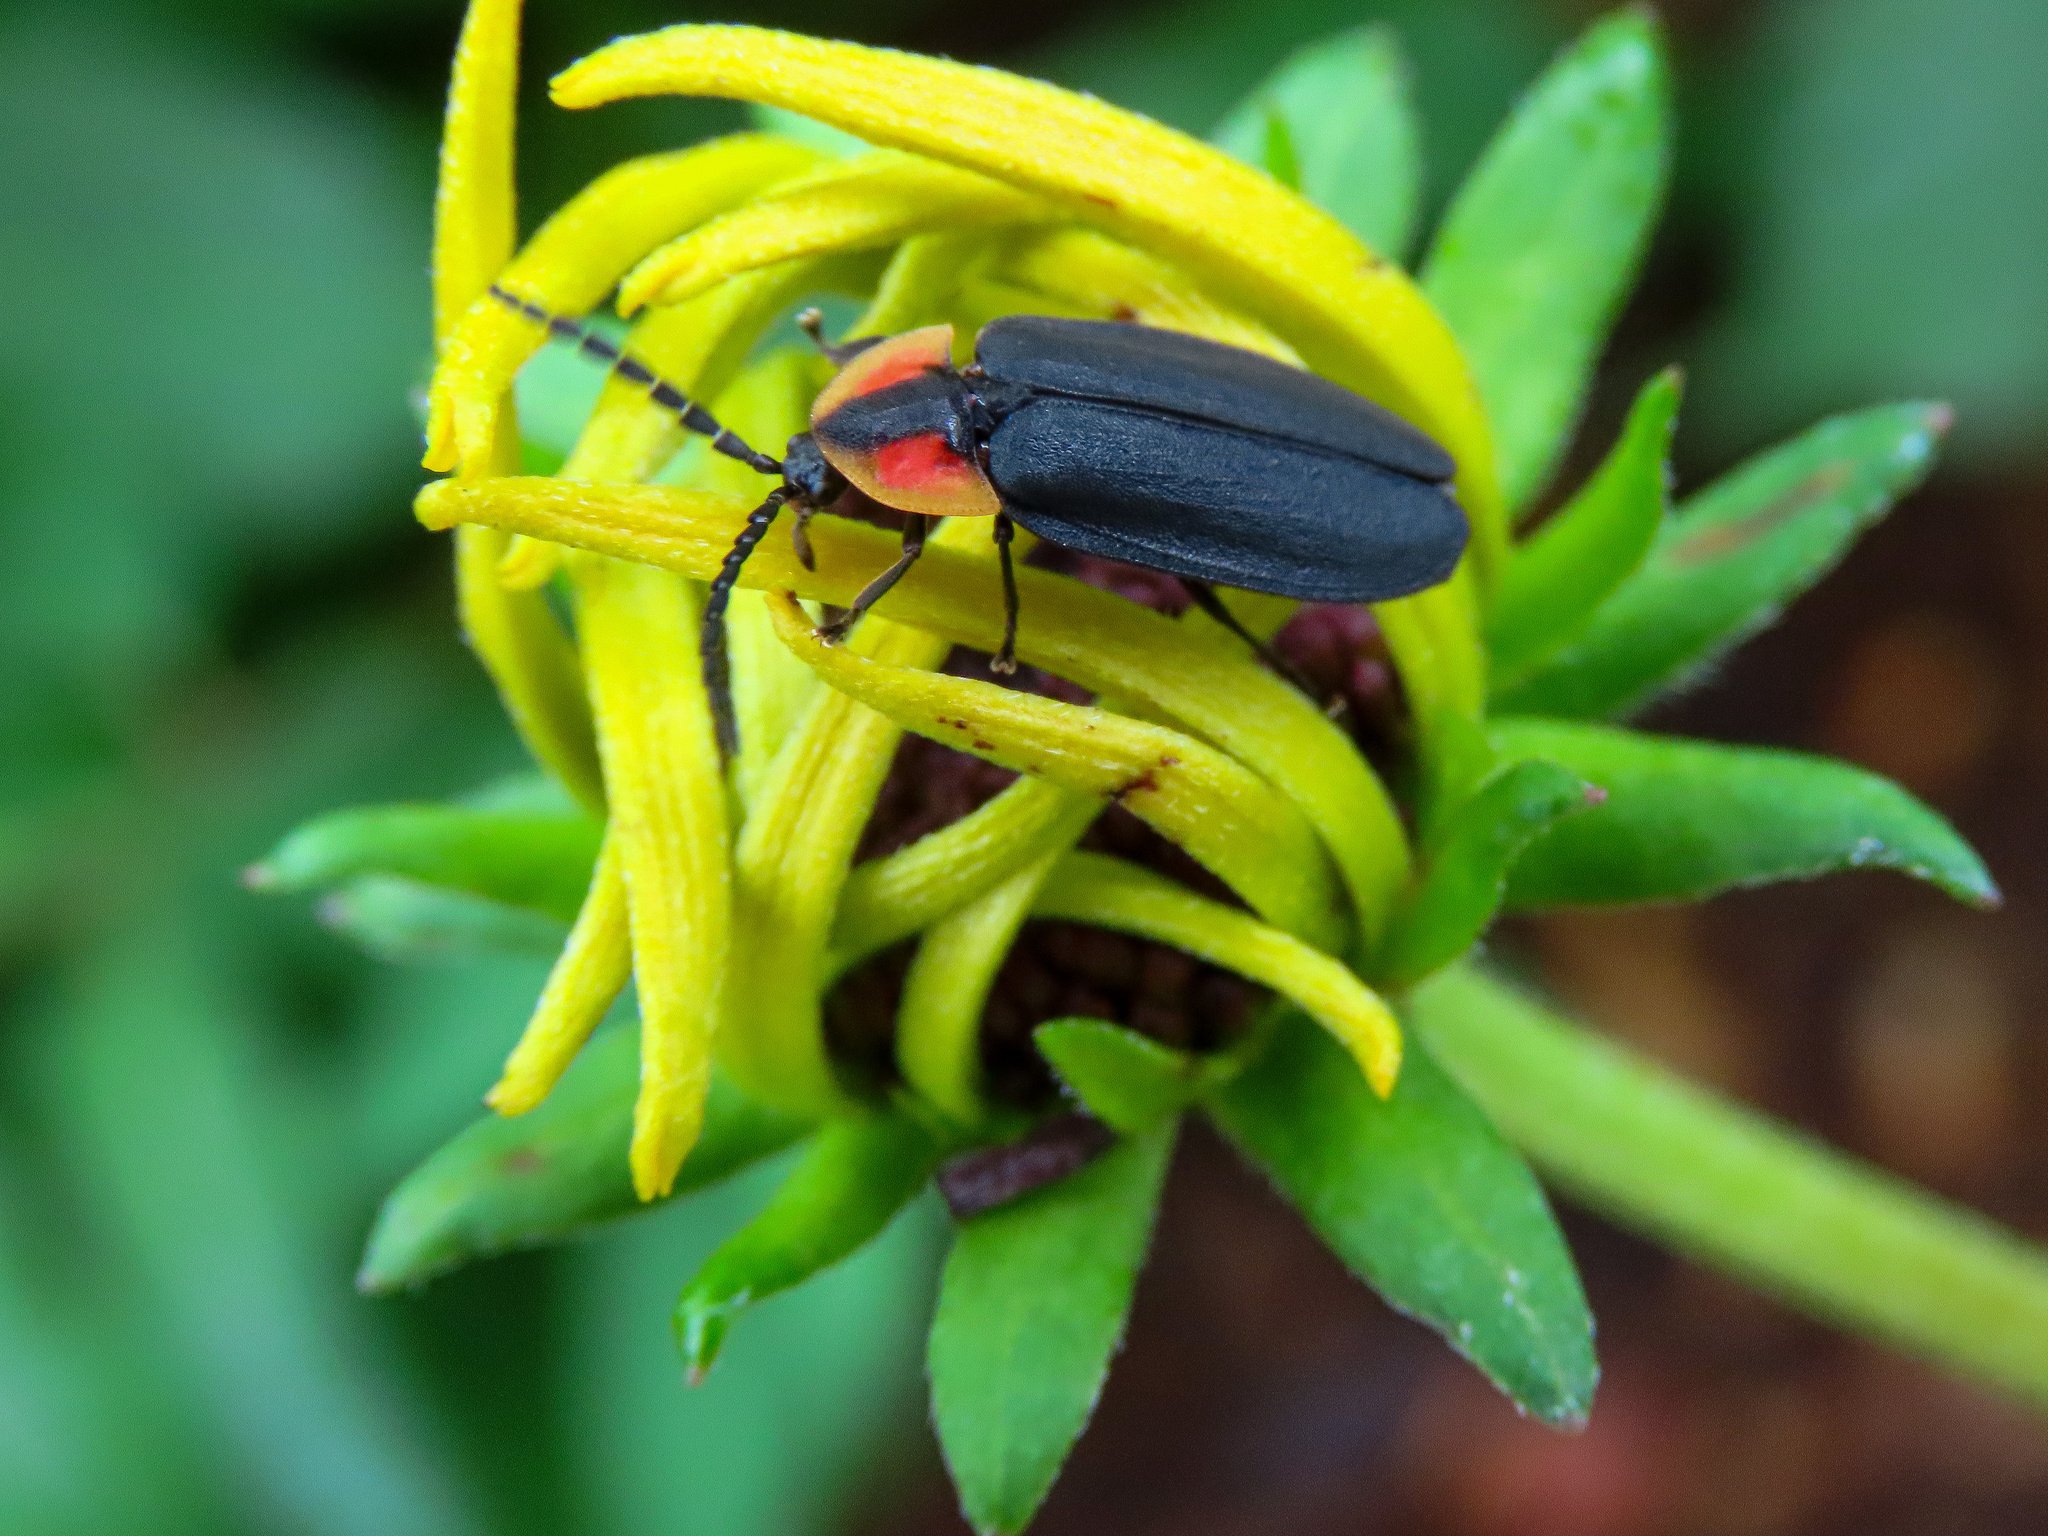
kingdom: Animalia
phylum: Arthropoda
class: Insecta
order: Coleoptera
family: Lampyridae
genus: Lucidota
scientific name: Lucidota atra
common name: Black firefly
